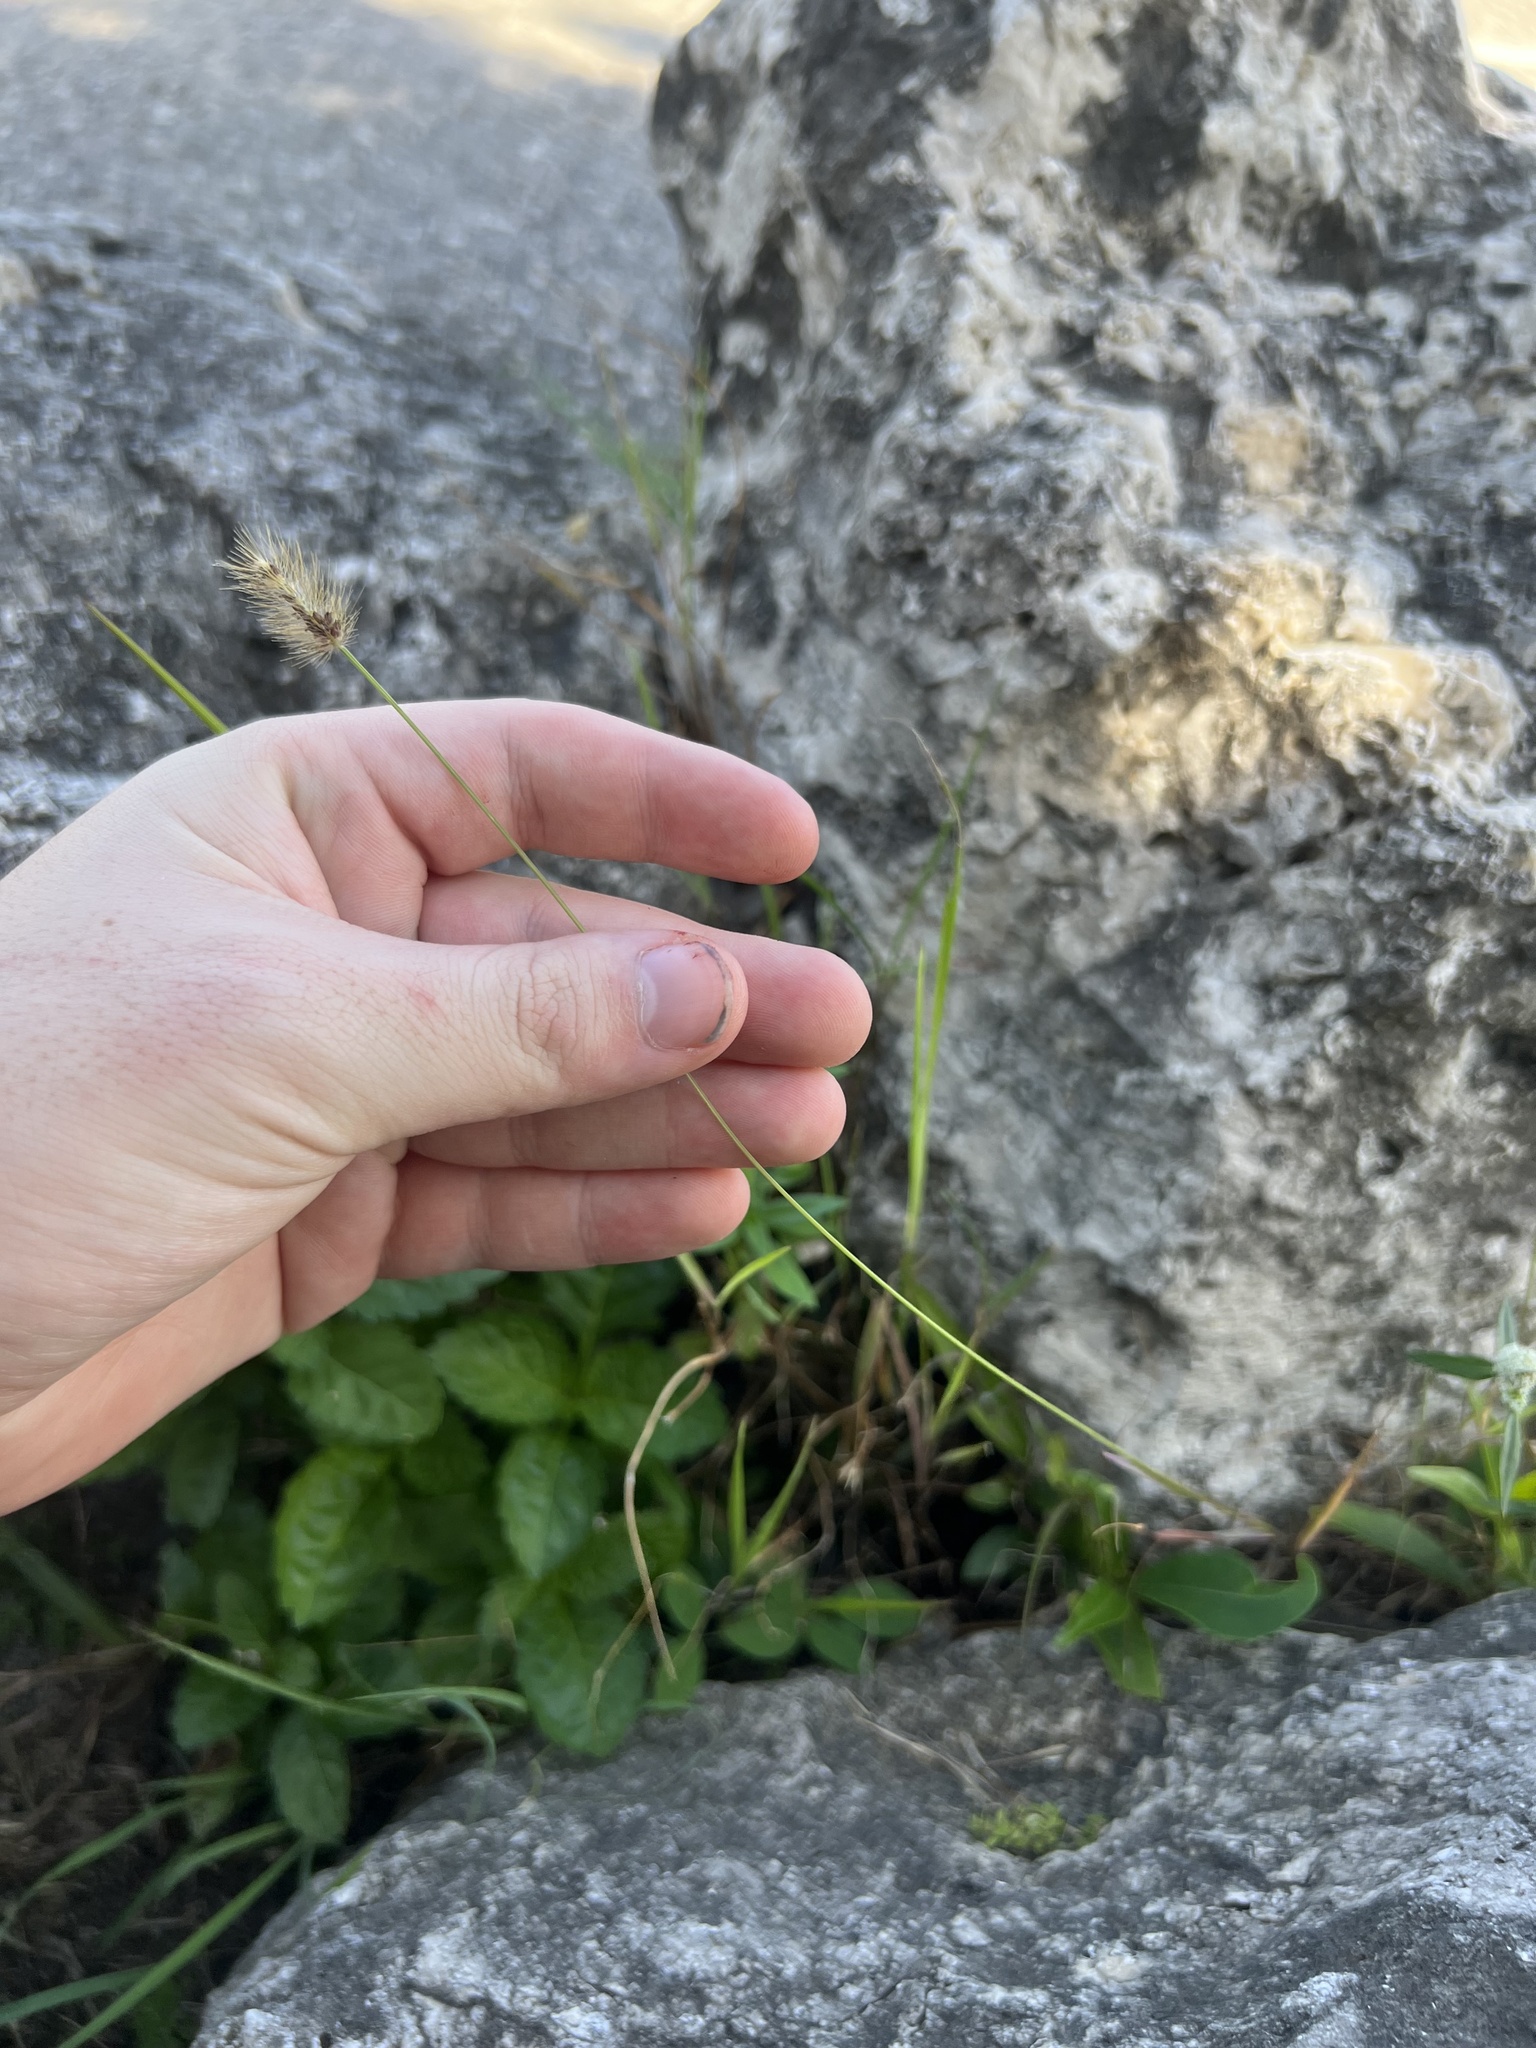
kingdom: Plantae
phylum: Tracheophyta
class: Liliopsida
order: Poales
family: Poaceae
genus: Setaria
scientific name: Setaria parviflora
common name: Knotroot bristle-grass
